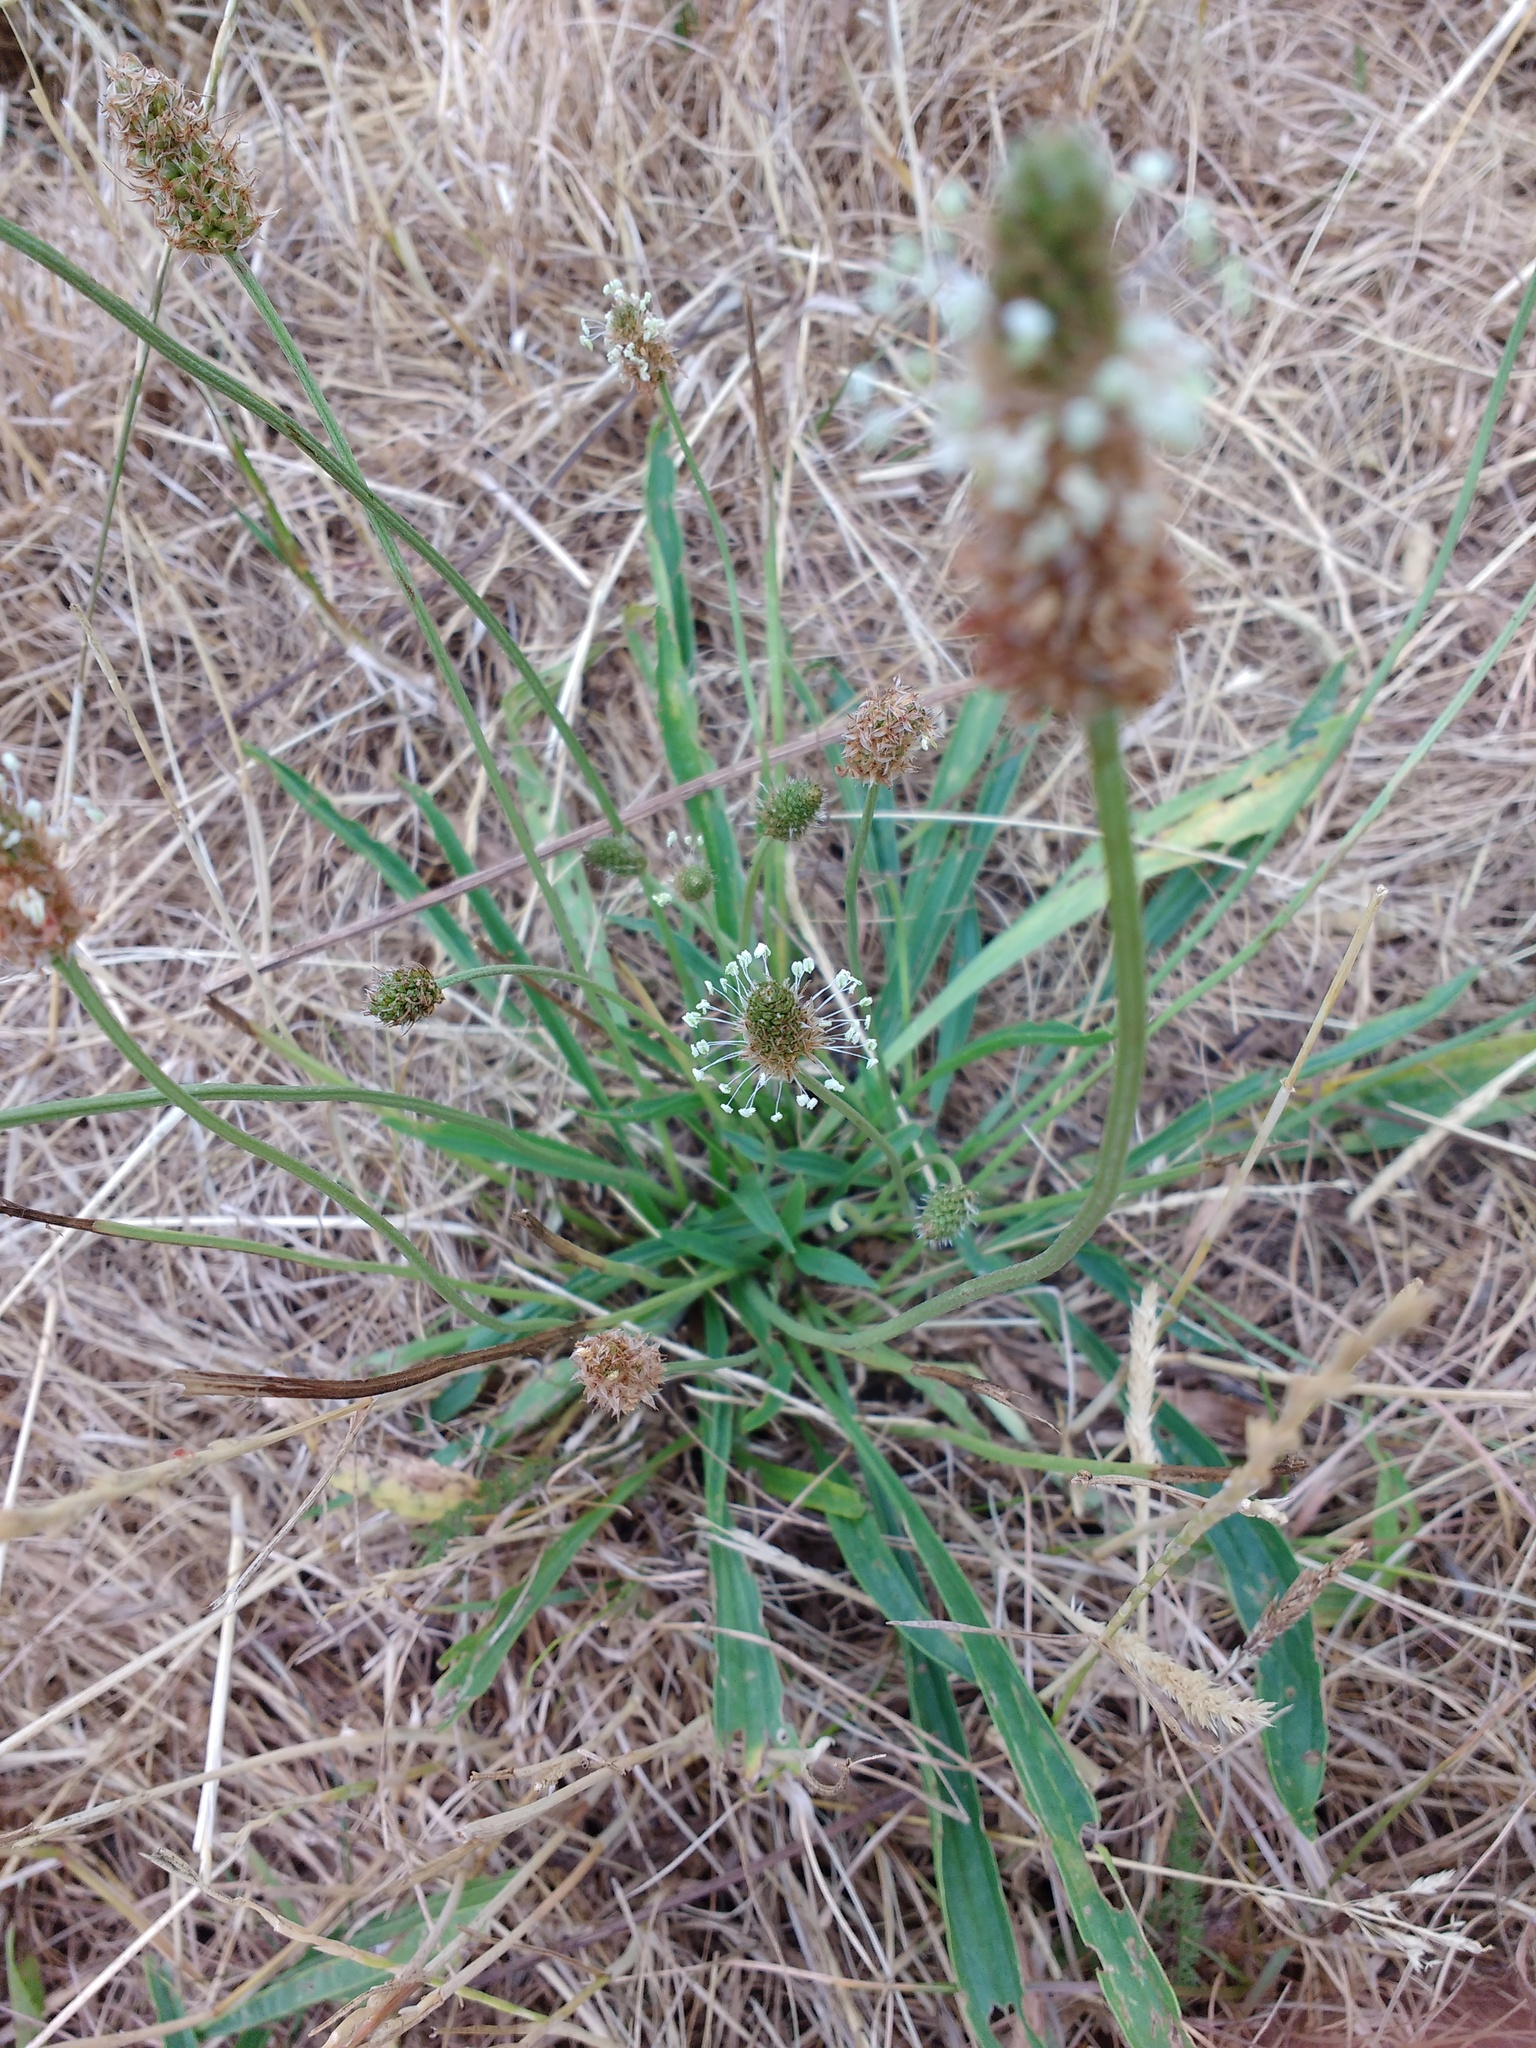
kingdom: Plantae
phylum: Tracheophyta
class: Magnoliopsida
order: Lamiales
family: Plantaginaceae
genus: Plantago
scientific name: Plantago lanceolata
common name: Ribwort plantain
